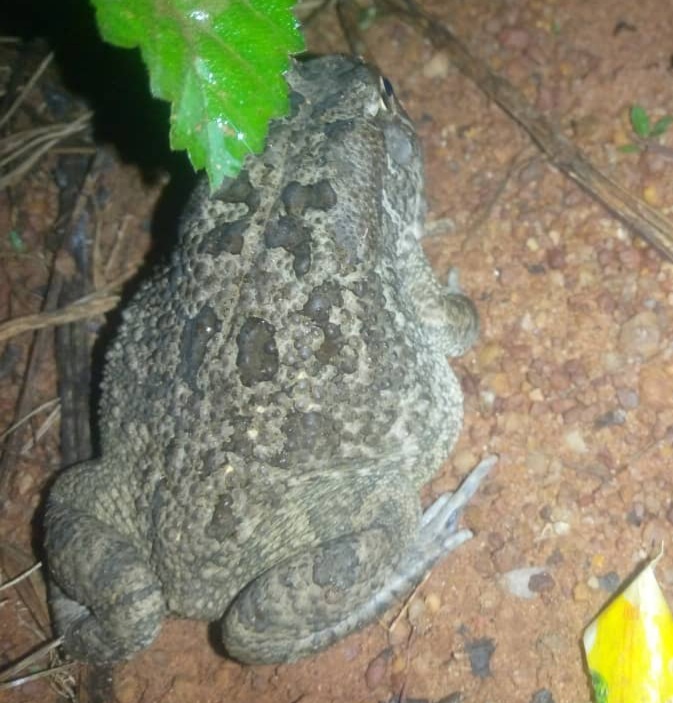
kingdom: Animalia
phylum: Chordata
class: Amphibia
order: Anura
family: Bufonidae
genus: Sclerophrys
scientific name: Sclerophrys regularis
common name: African common toad
